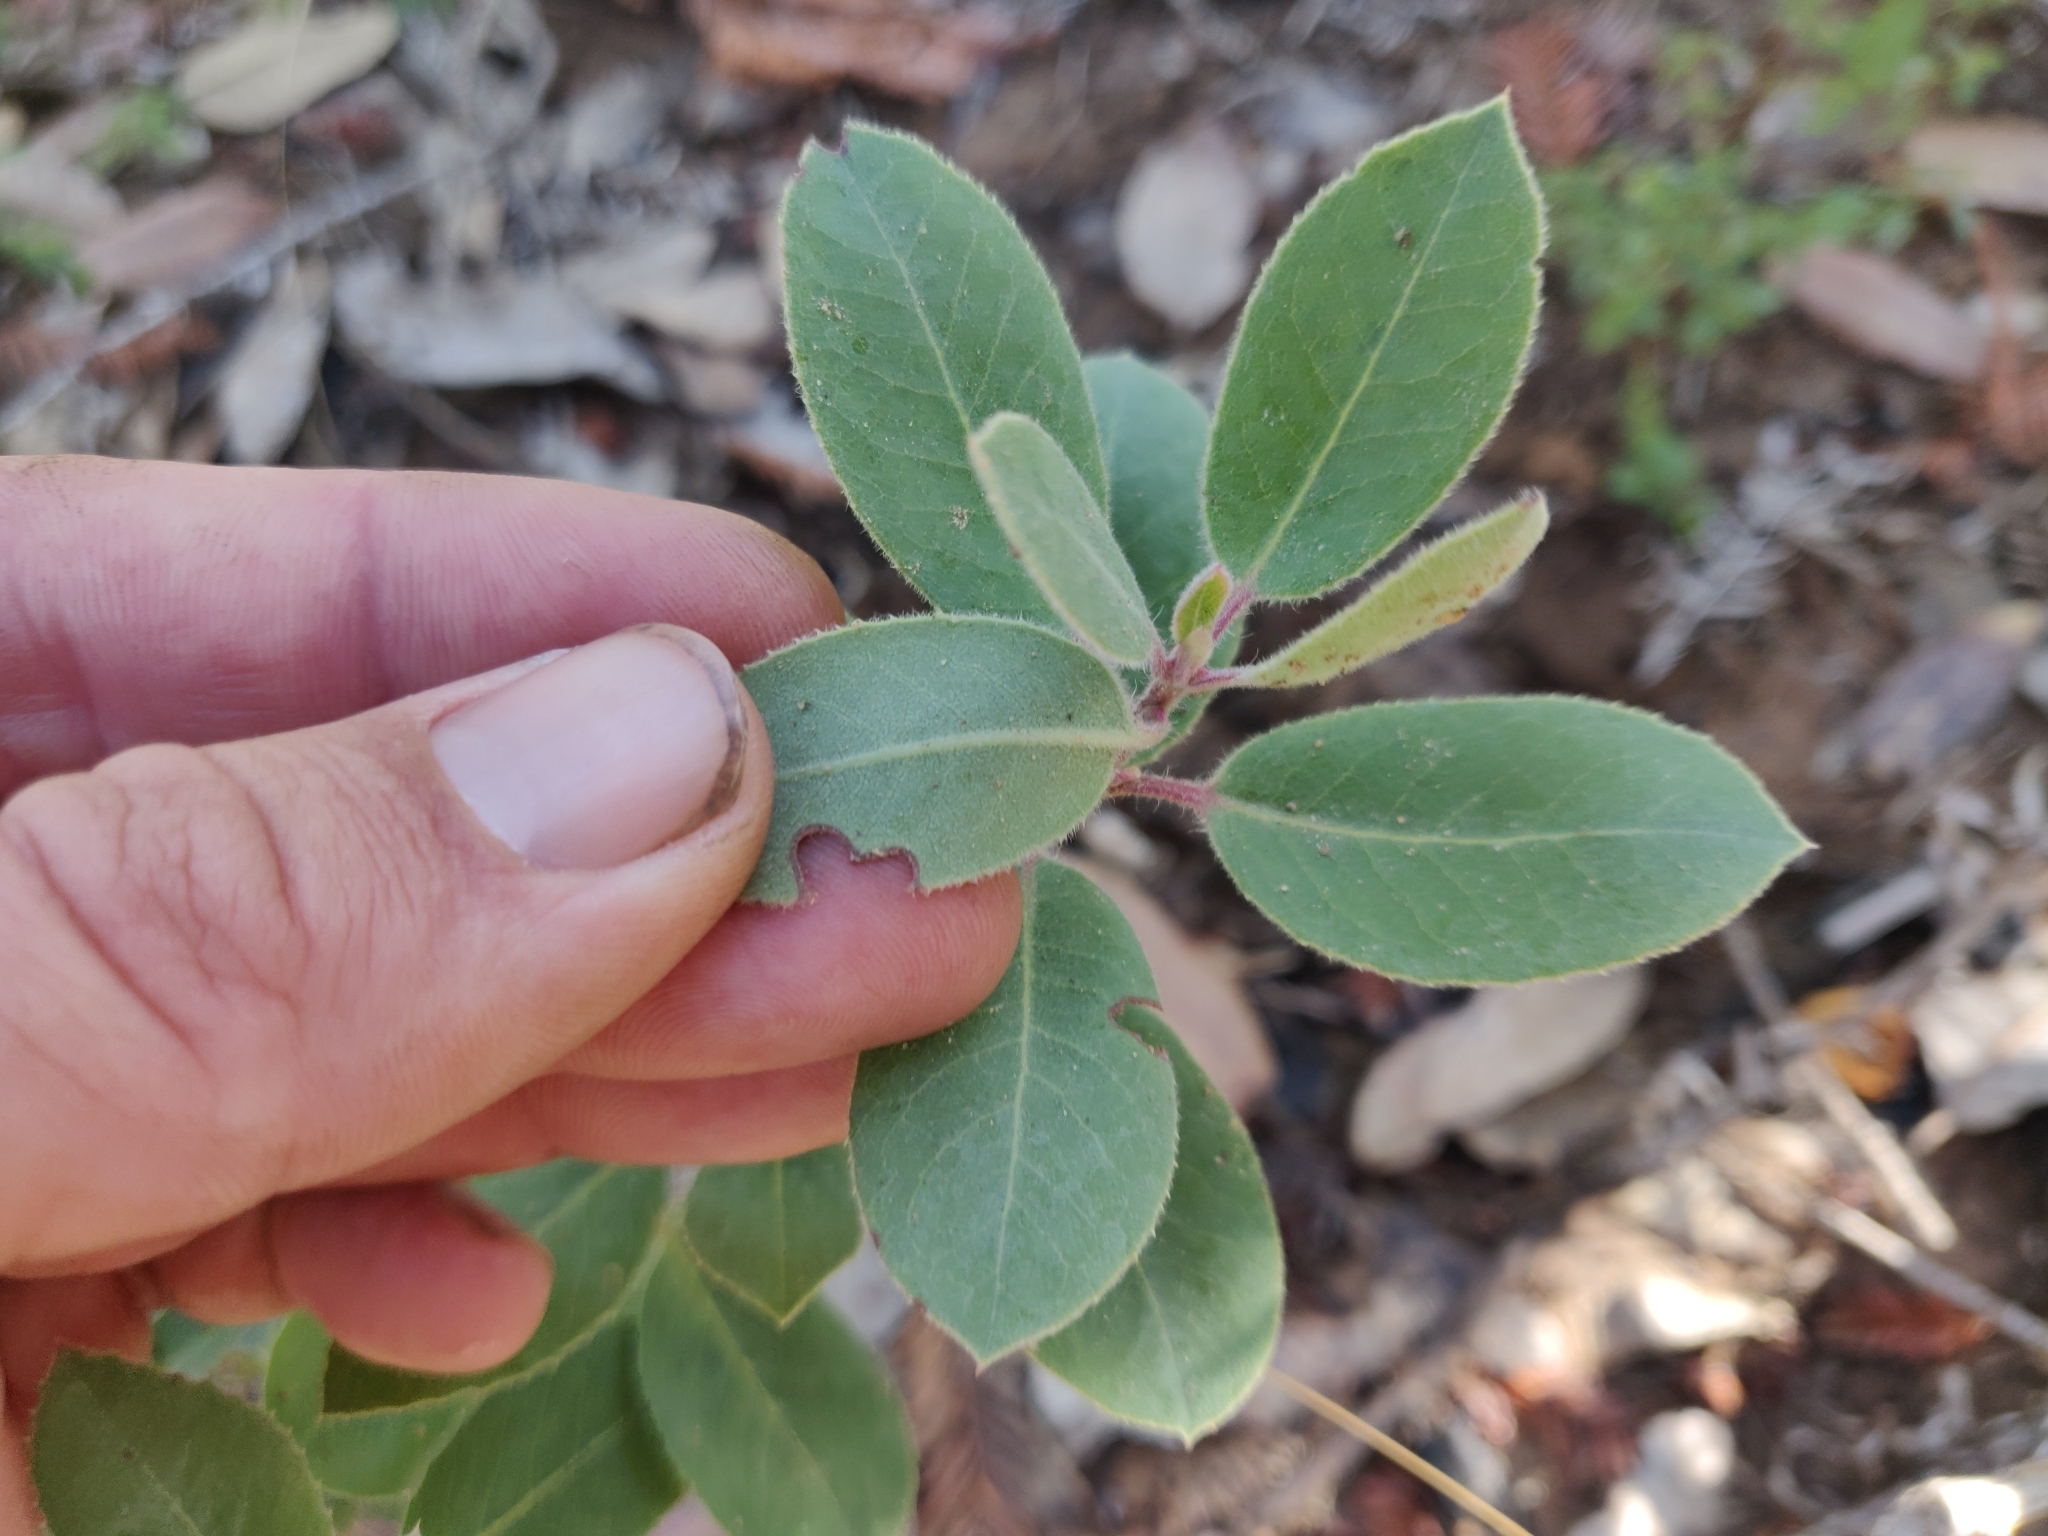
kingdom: Plantae
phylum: Tracheophyta
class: Magnoliopsida
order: Ericales
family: Ericaceae
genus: Arctostaphylos
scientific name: Arctostaphylos crustacea
